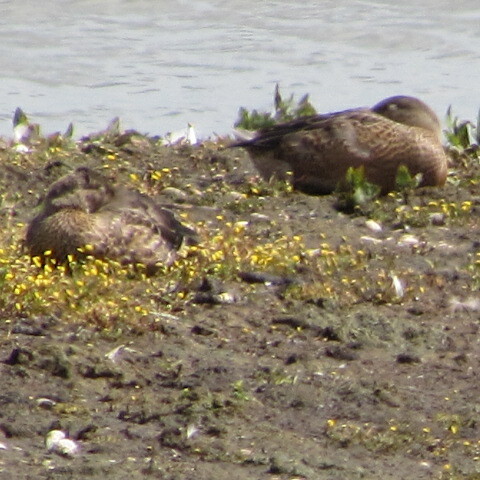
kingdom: Animalia
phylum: Chordata
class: Aves
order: Anseriformes
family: Anatidae
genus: Anas
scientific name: Anas platyrhynchos
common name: Mallard
